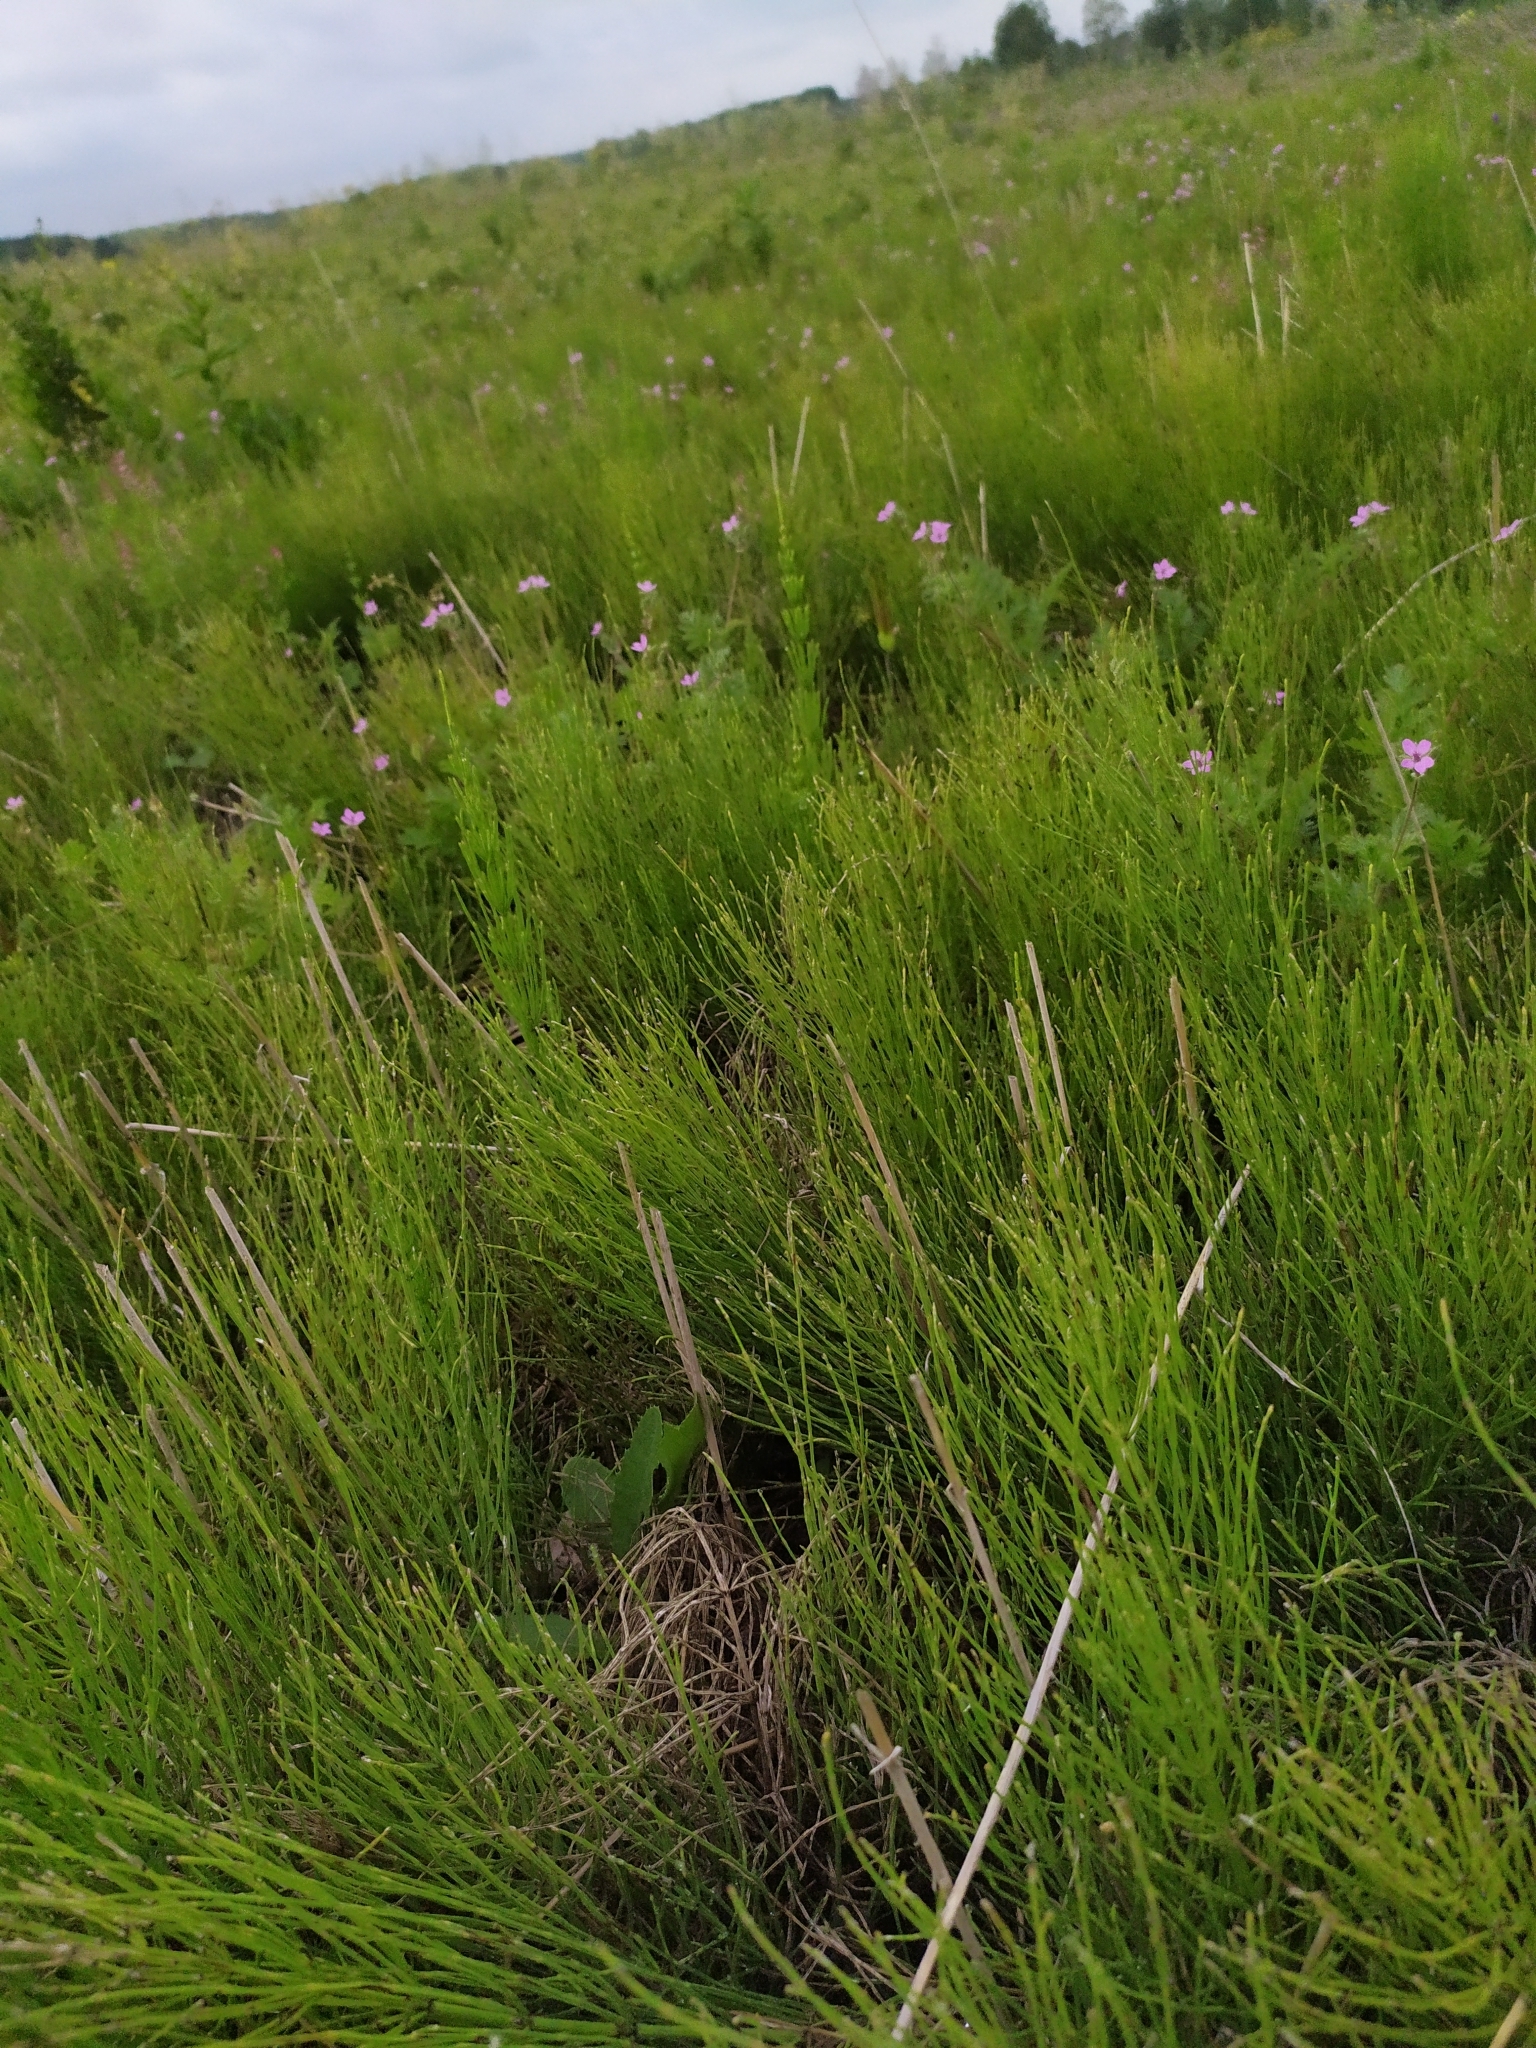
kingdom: Plantae
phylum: Tracheophyta
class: Polypodiopsida
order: Equisetales
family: Equisetaceae
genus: Equisetum
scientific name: Equisetum arvense
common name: Field horsetail
